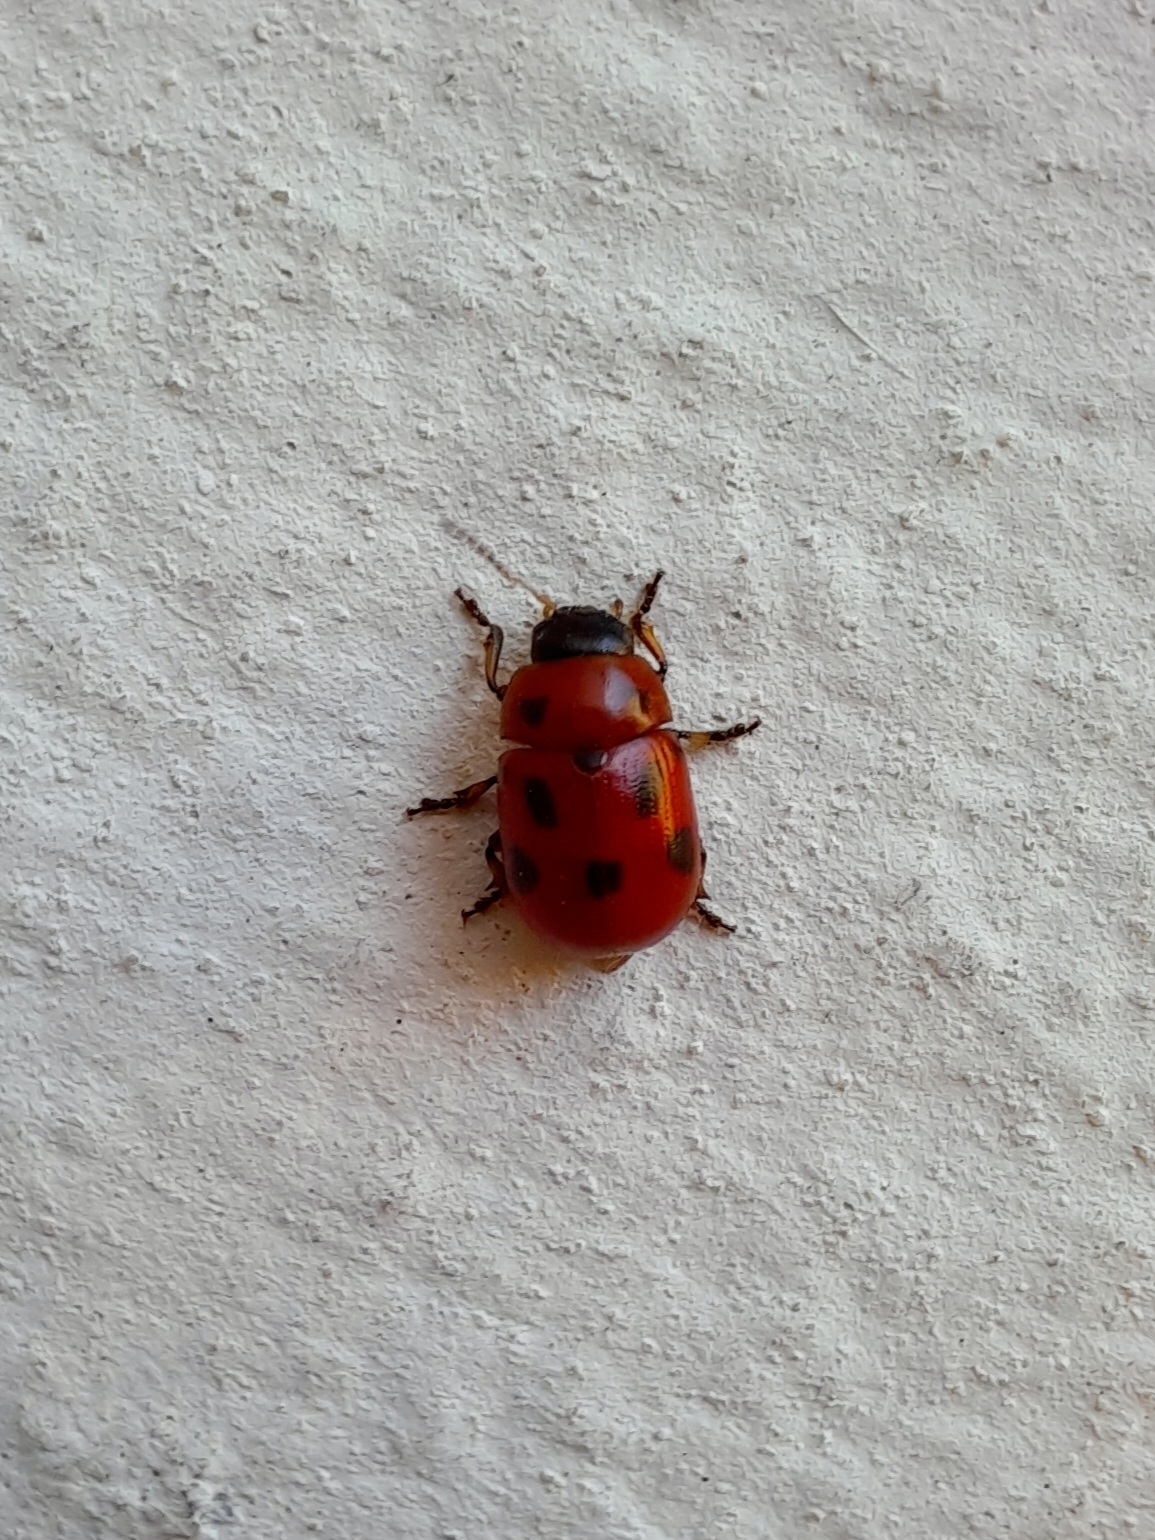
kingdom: Animalia
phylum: Arthropoda
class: Insecta
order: Coleoptera
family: Chrysomelidae
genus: Gonioctena
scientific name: Gonioctena fornicata
